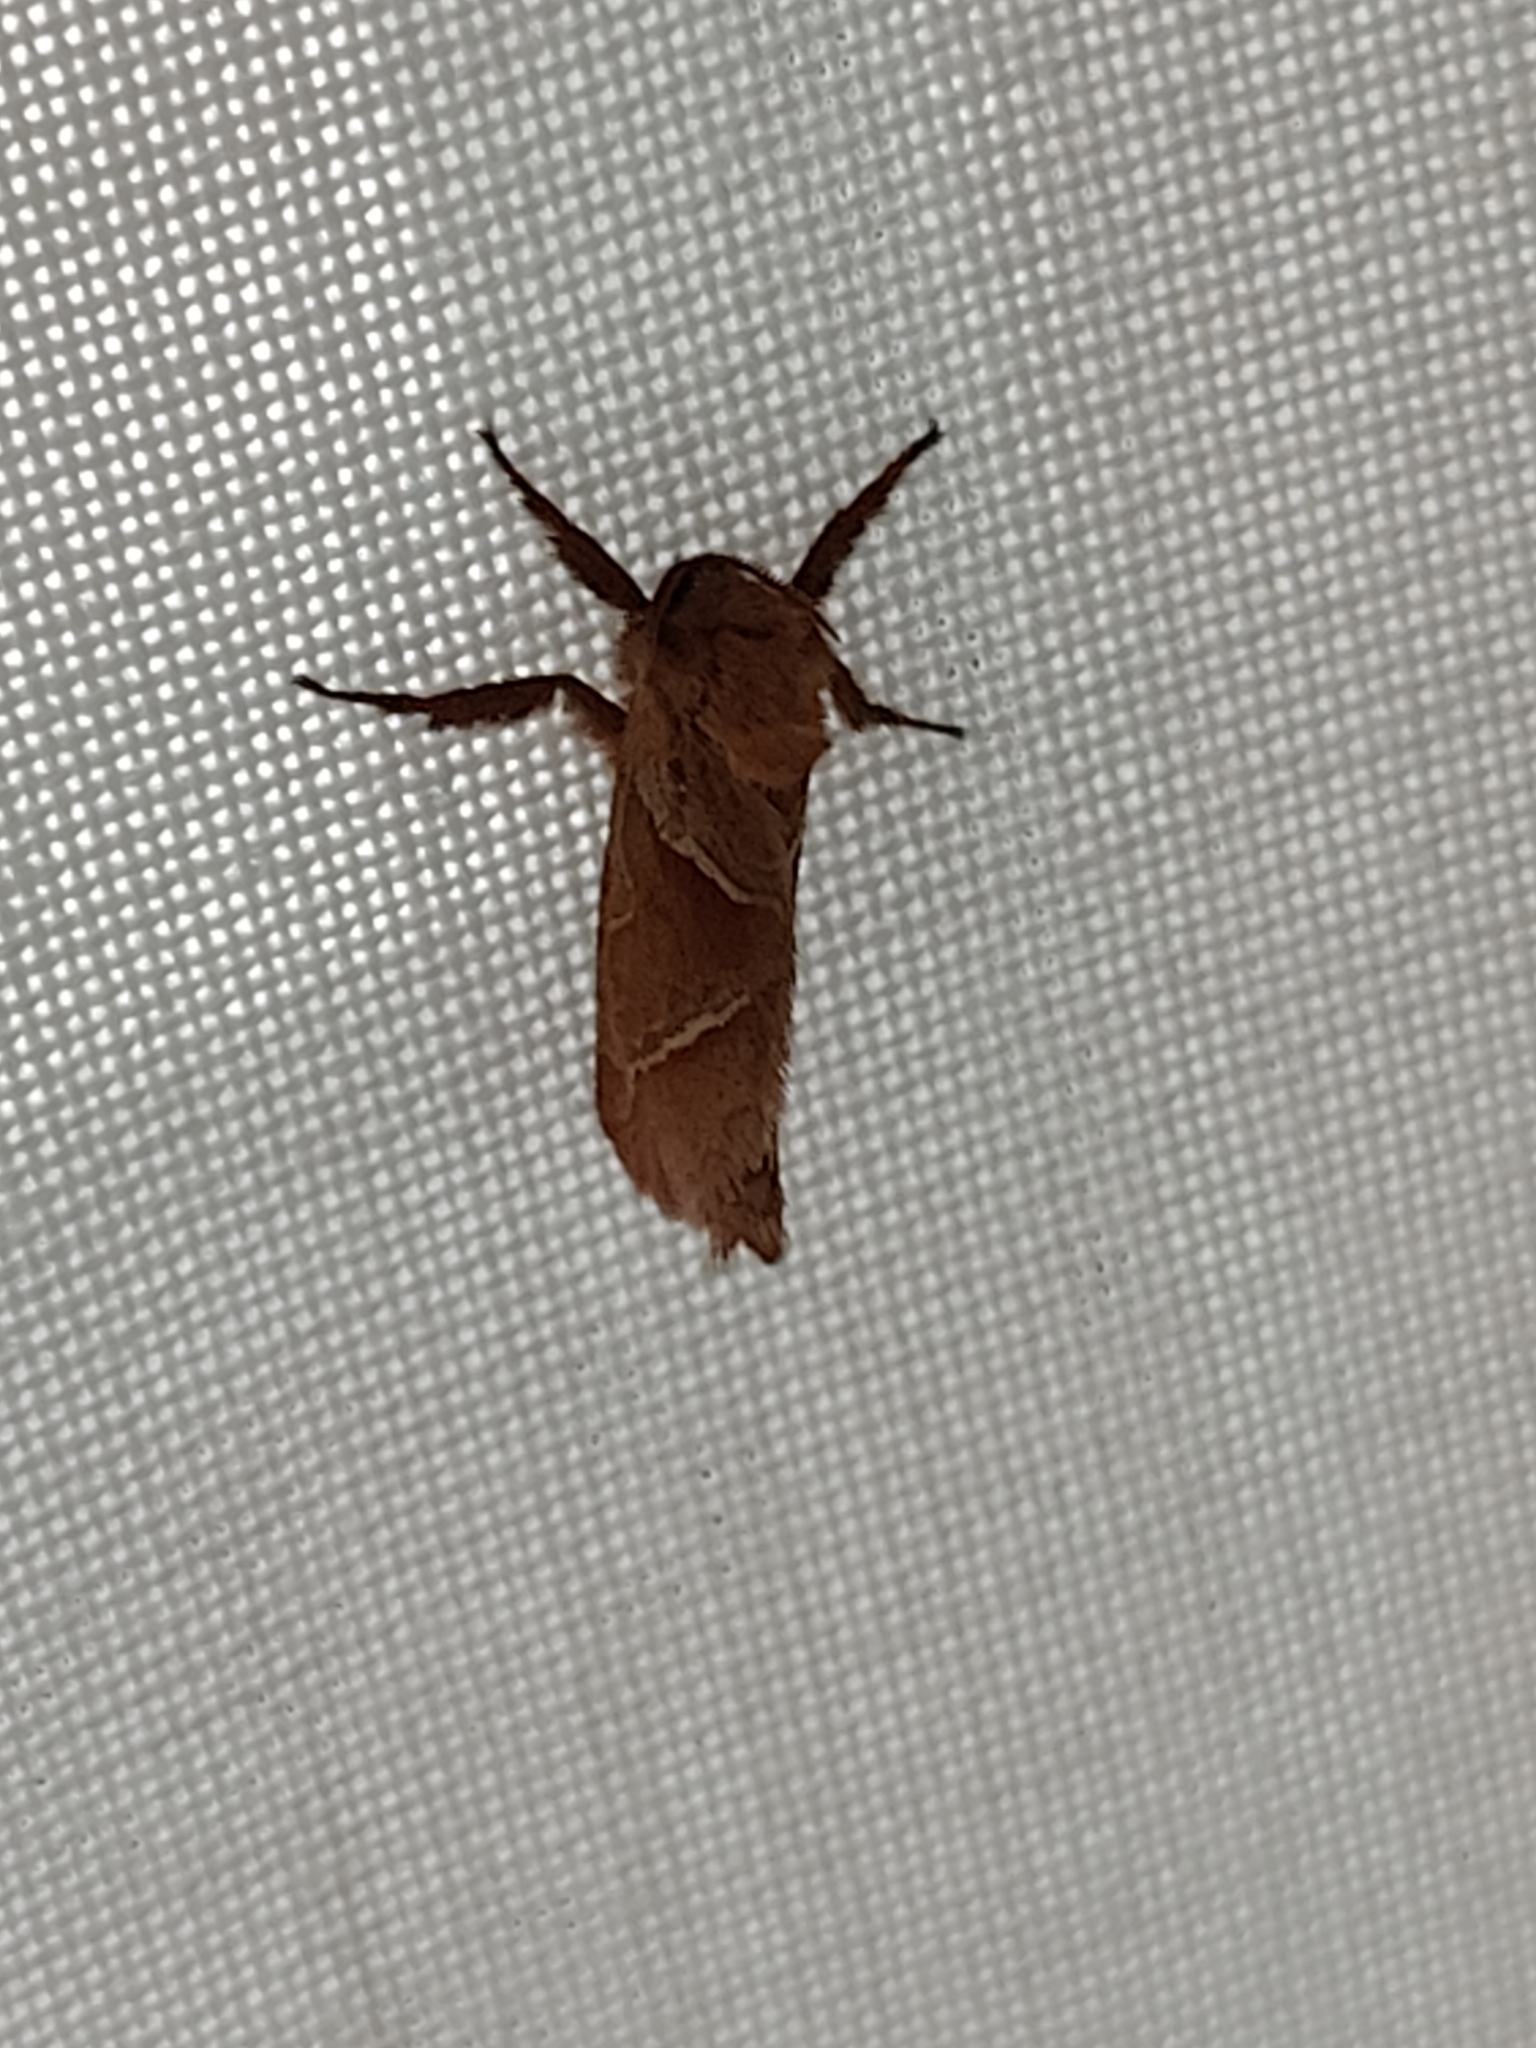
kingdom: Animalia
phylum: Arthropoda
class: Insecta
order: Lepidoptera
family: Hepialidae
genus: Triodia
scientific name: Triodia sylvina
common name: Orange swift
